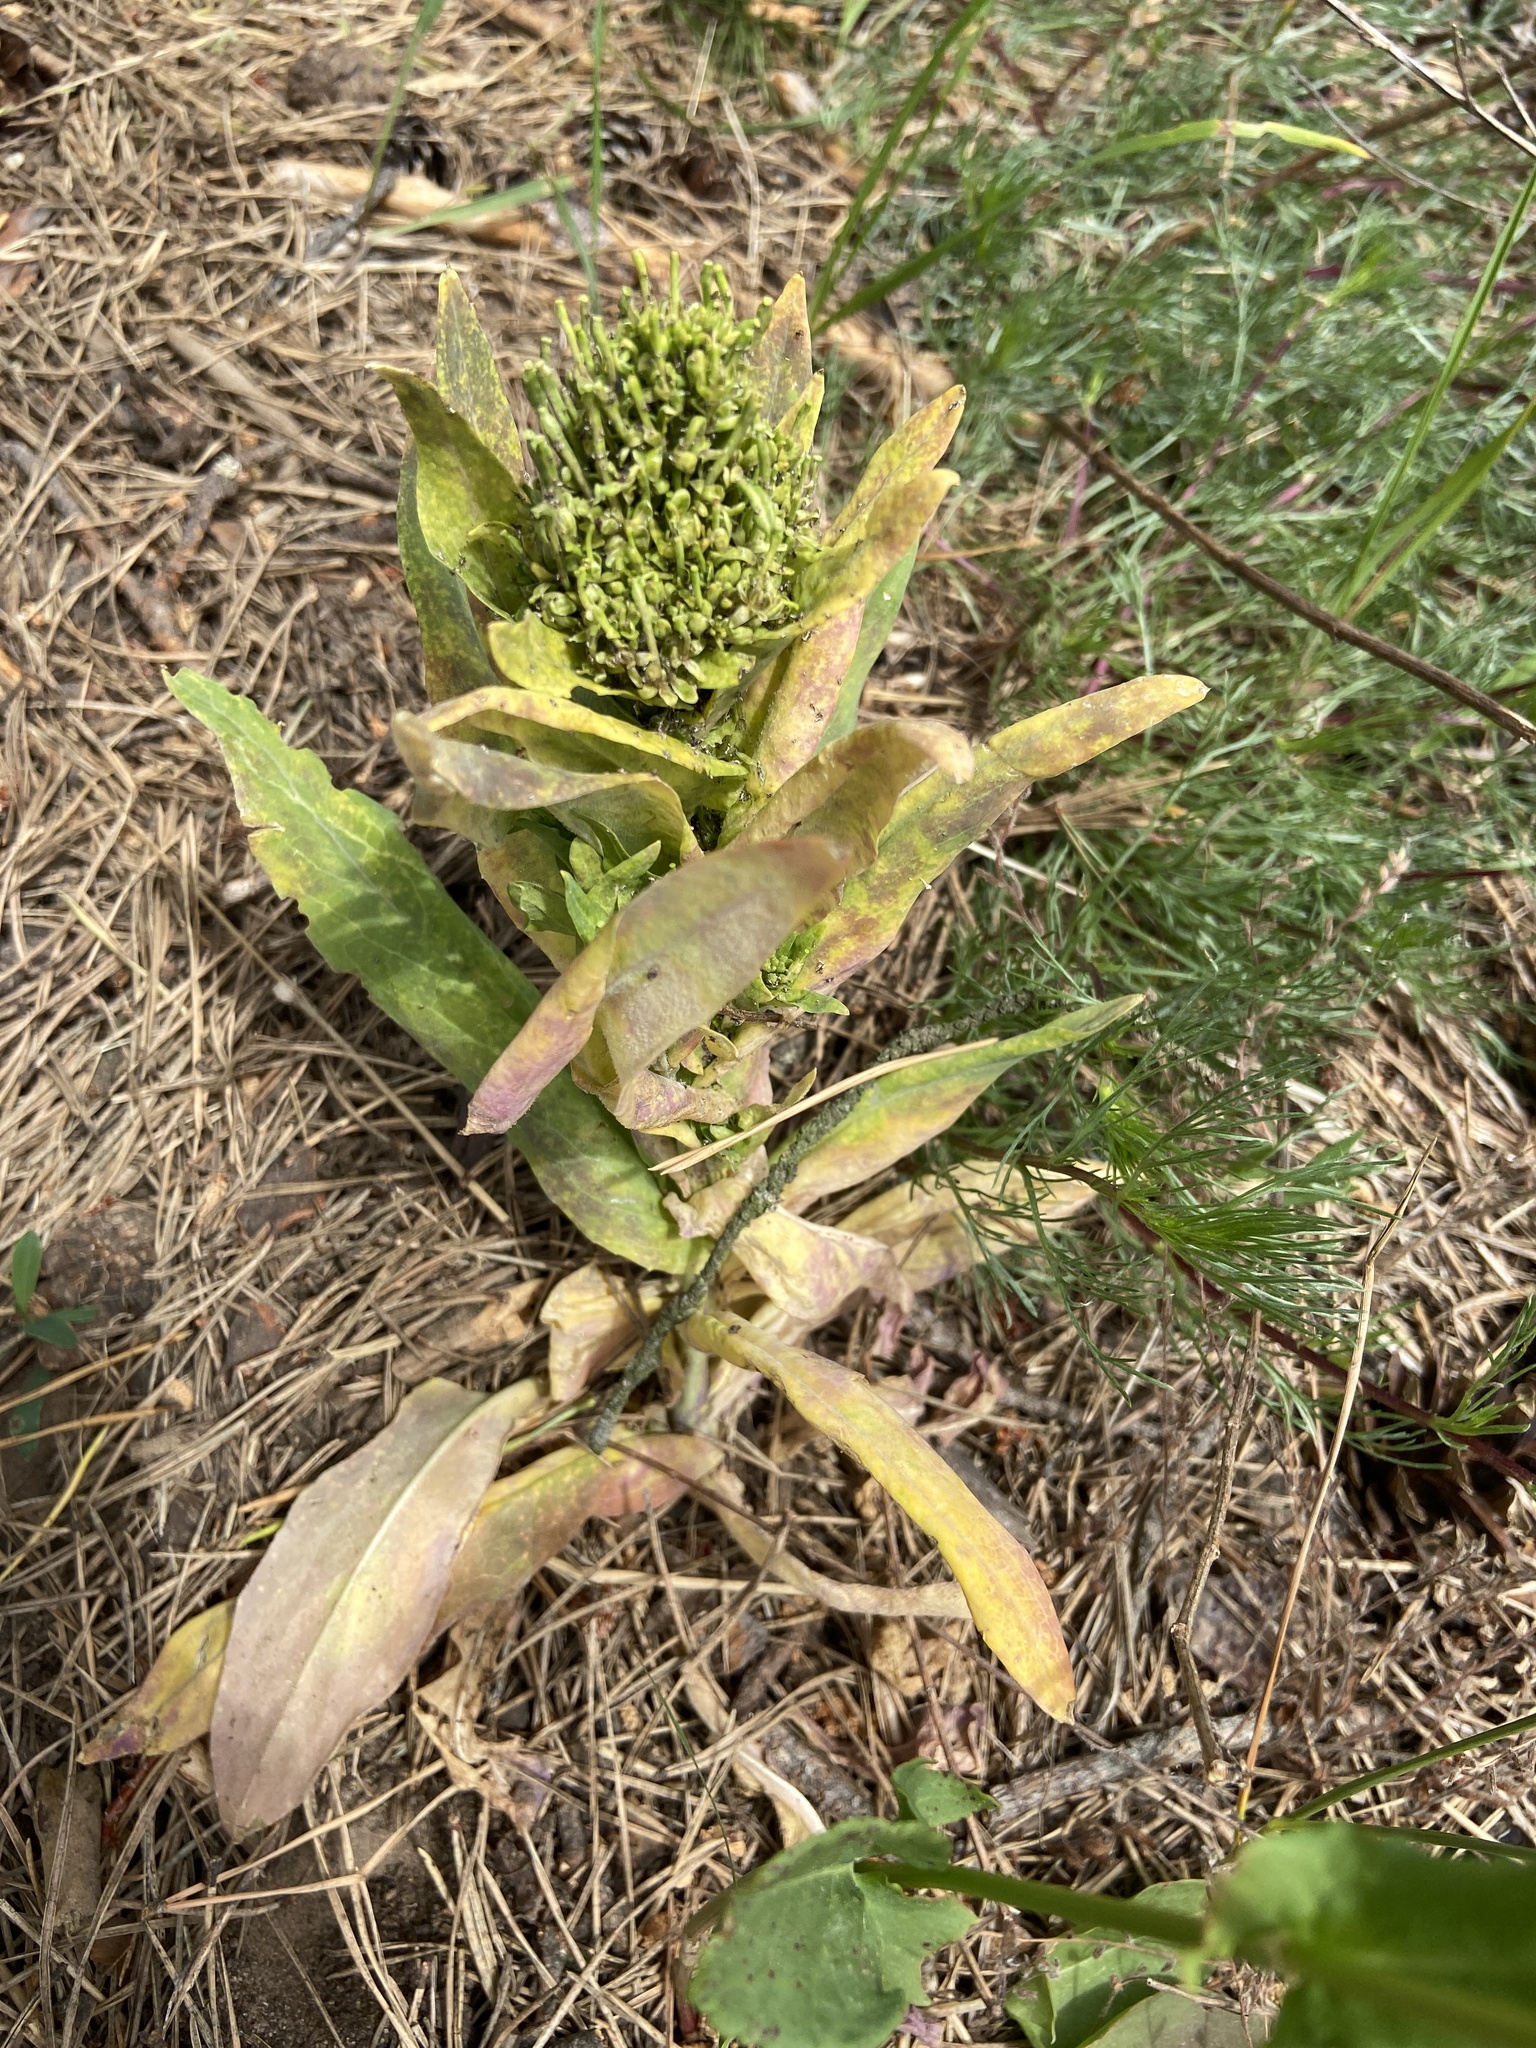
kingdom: Plantae
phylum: Tracheophyta
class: Magnoliopsida
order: Brassicales
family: Brassicaceae
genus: Turritis
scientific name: Turritis glabra
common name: Tower rockcress
